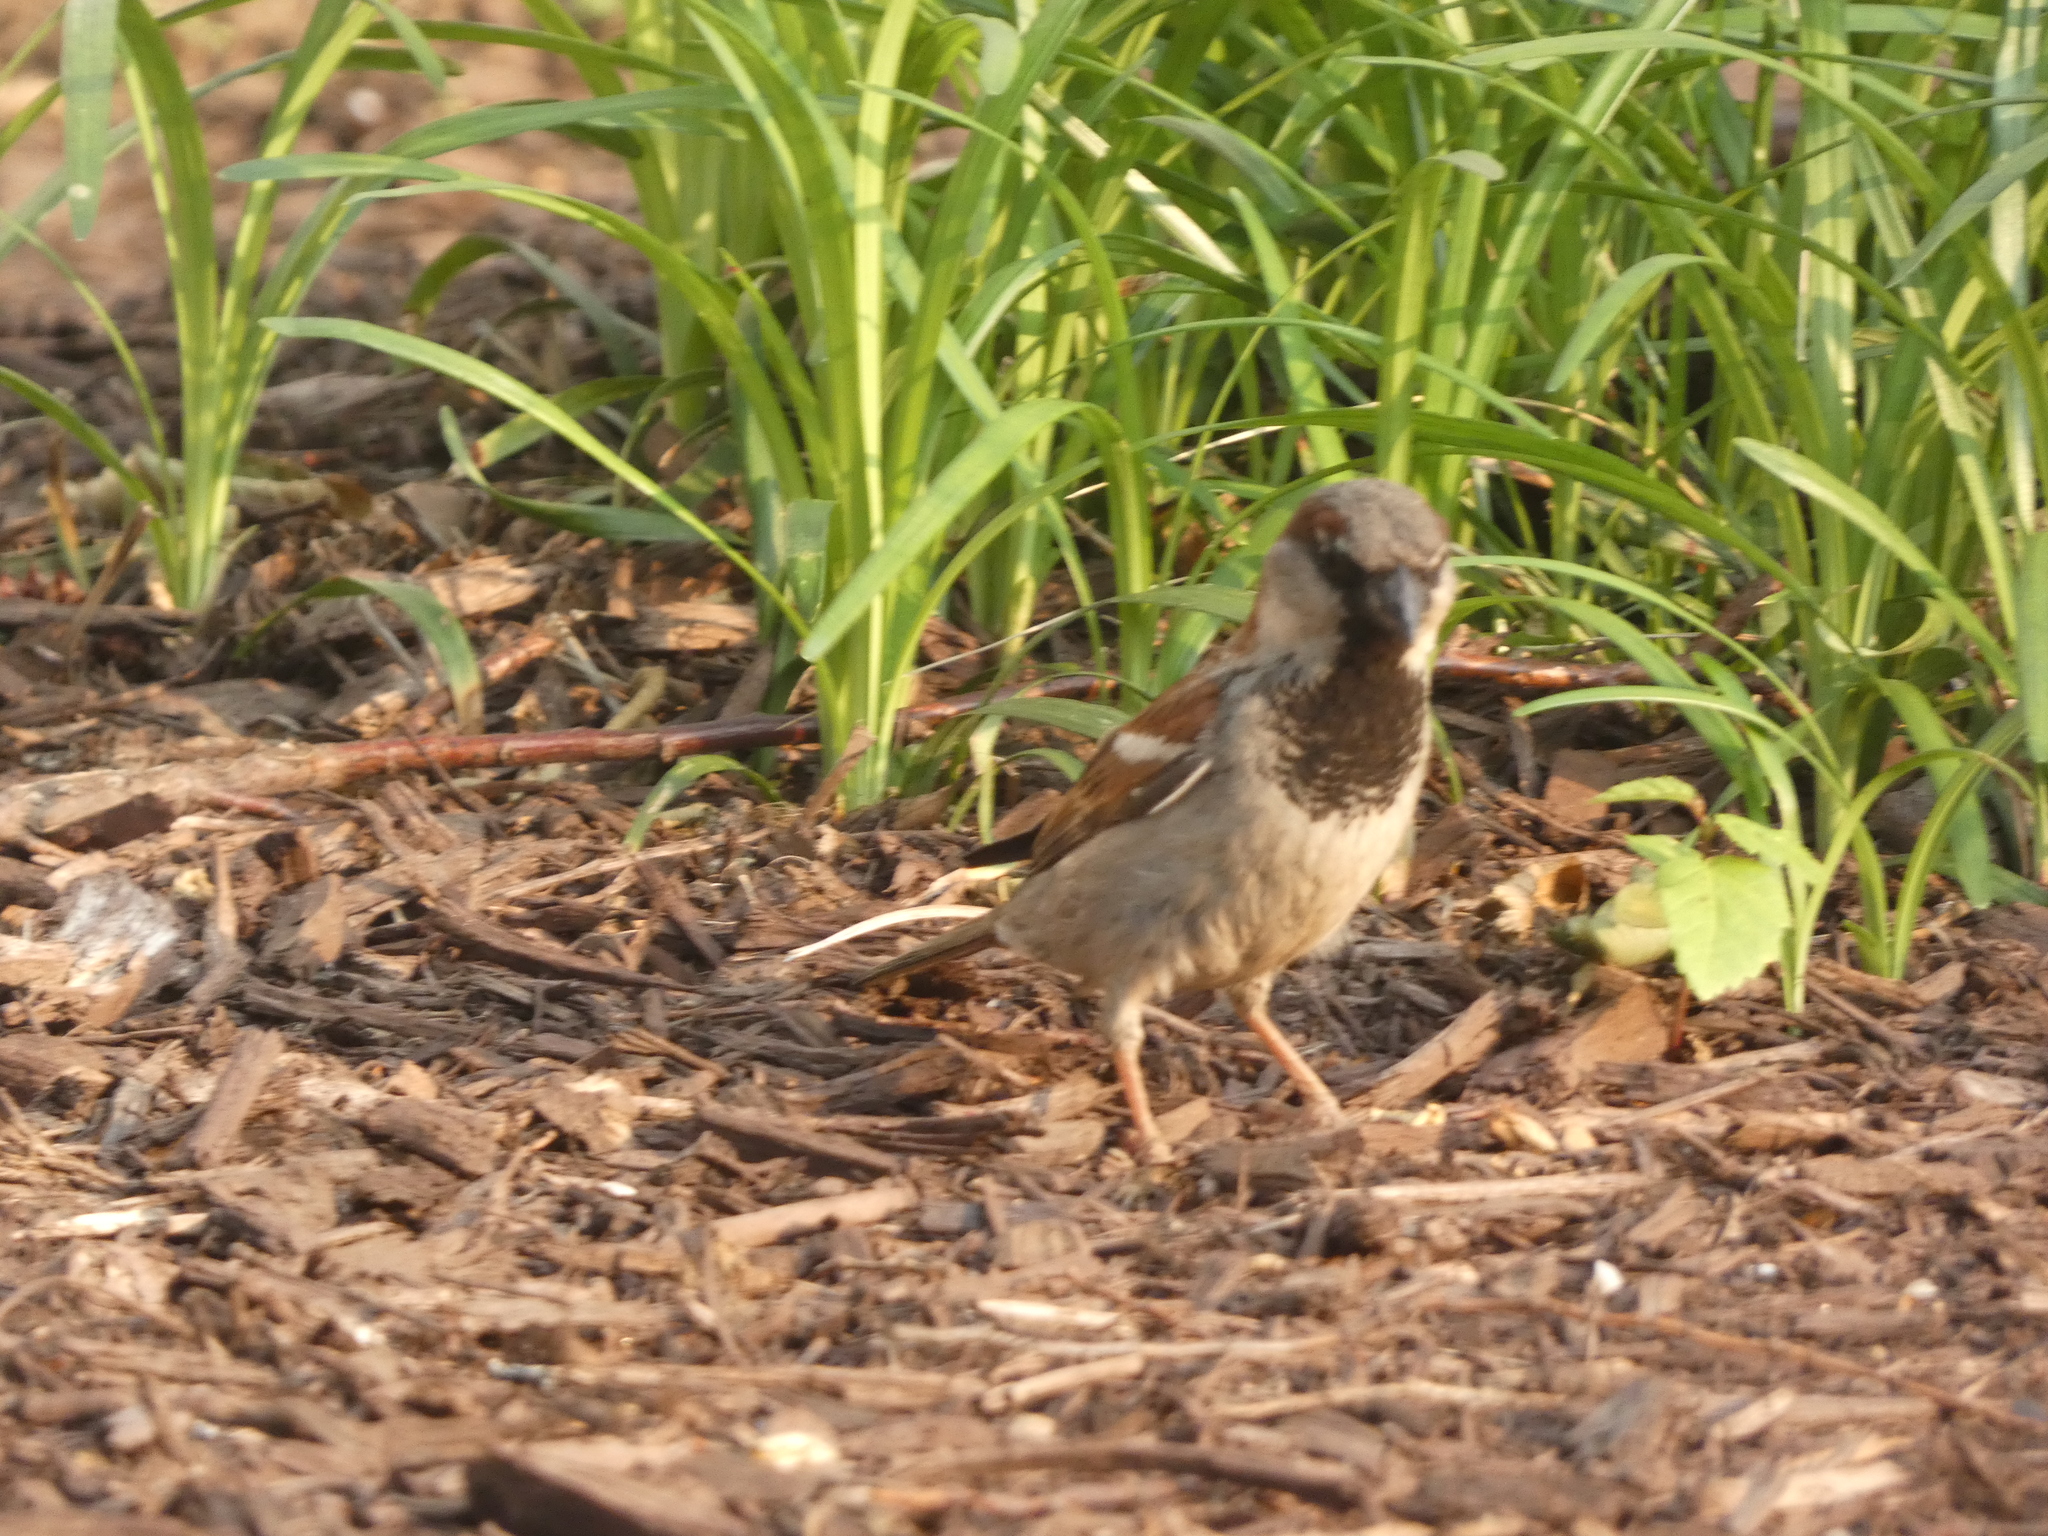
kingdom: Animalia
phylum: Chordata
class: Aves
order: Passeriformes
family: Passeridae
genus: Passer
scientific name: Passer domesticus
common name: House sparrow
